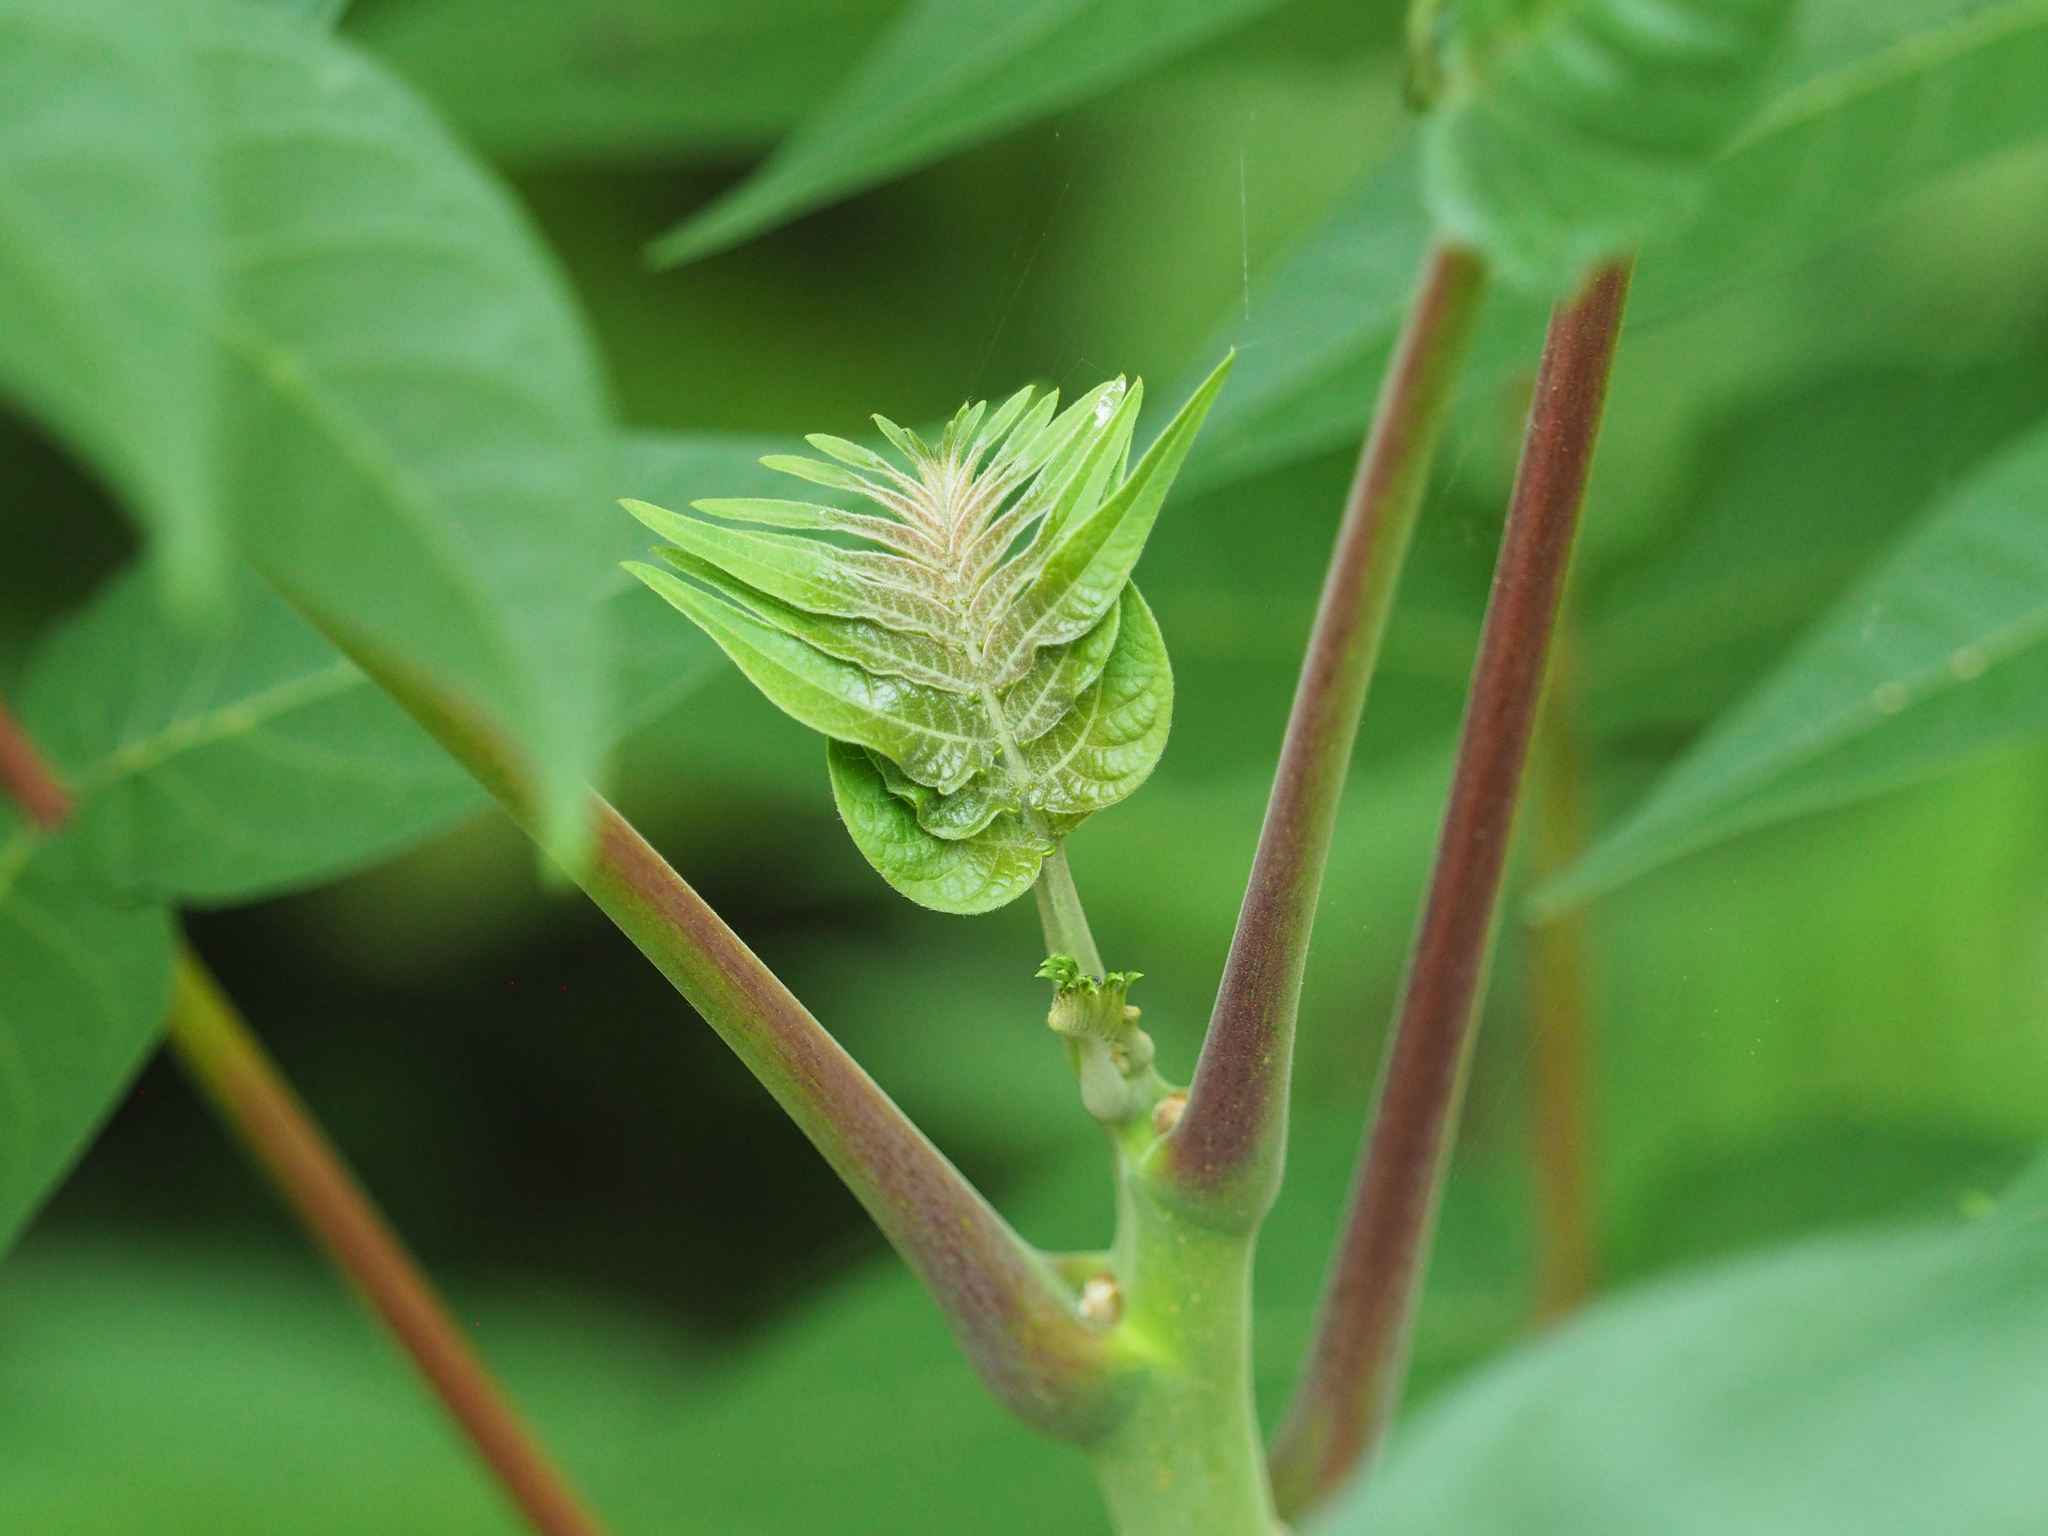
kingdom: Plantae
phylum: Tracheophyta
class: Magnoliopsida
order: Sapindales
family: Simaroubaceae
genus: Ailanthus
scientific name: Ailanthus altissima
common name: Tree-of-heaven
